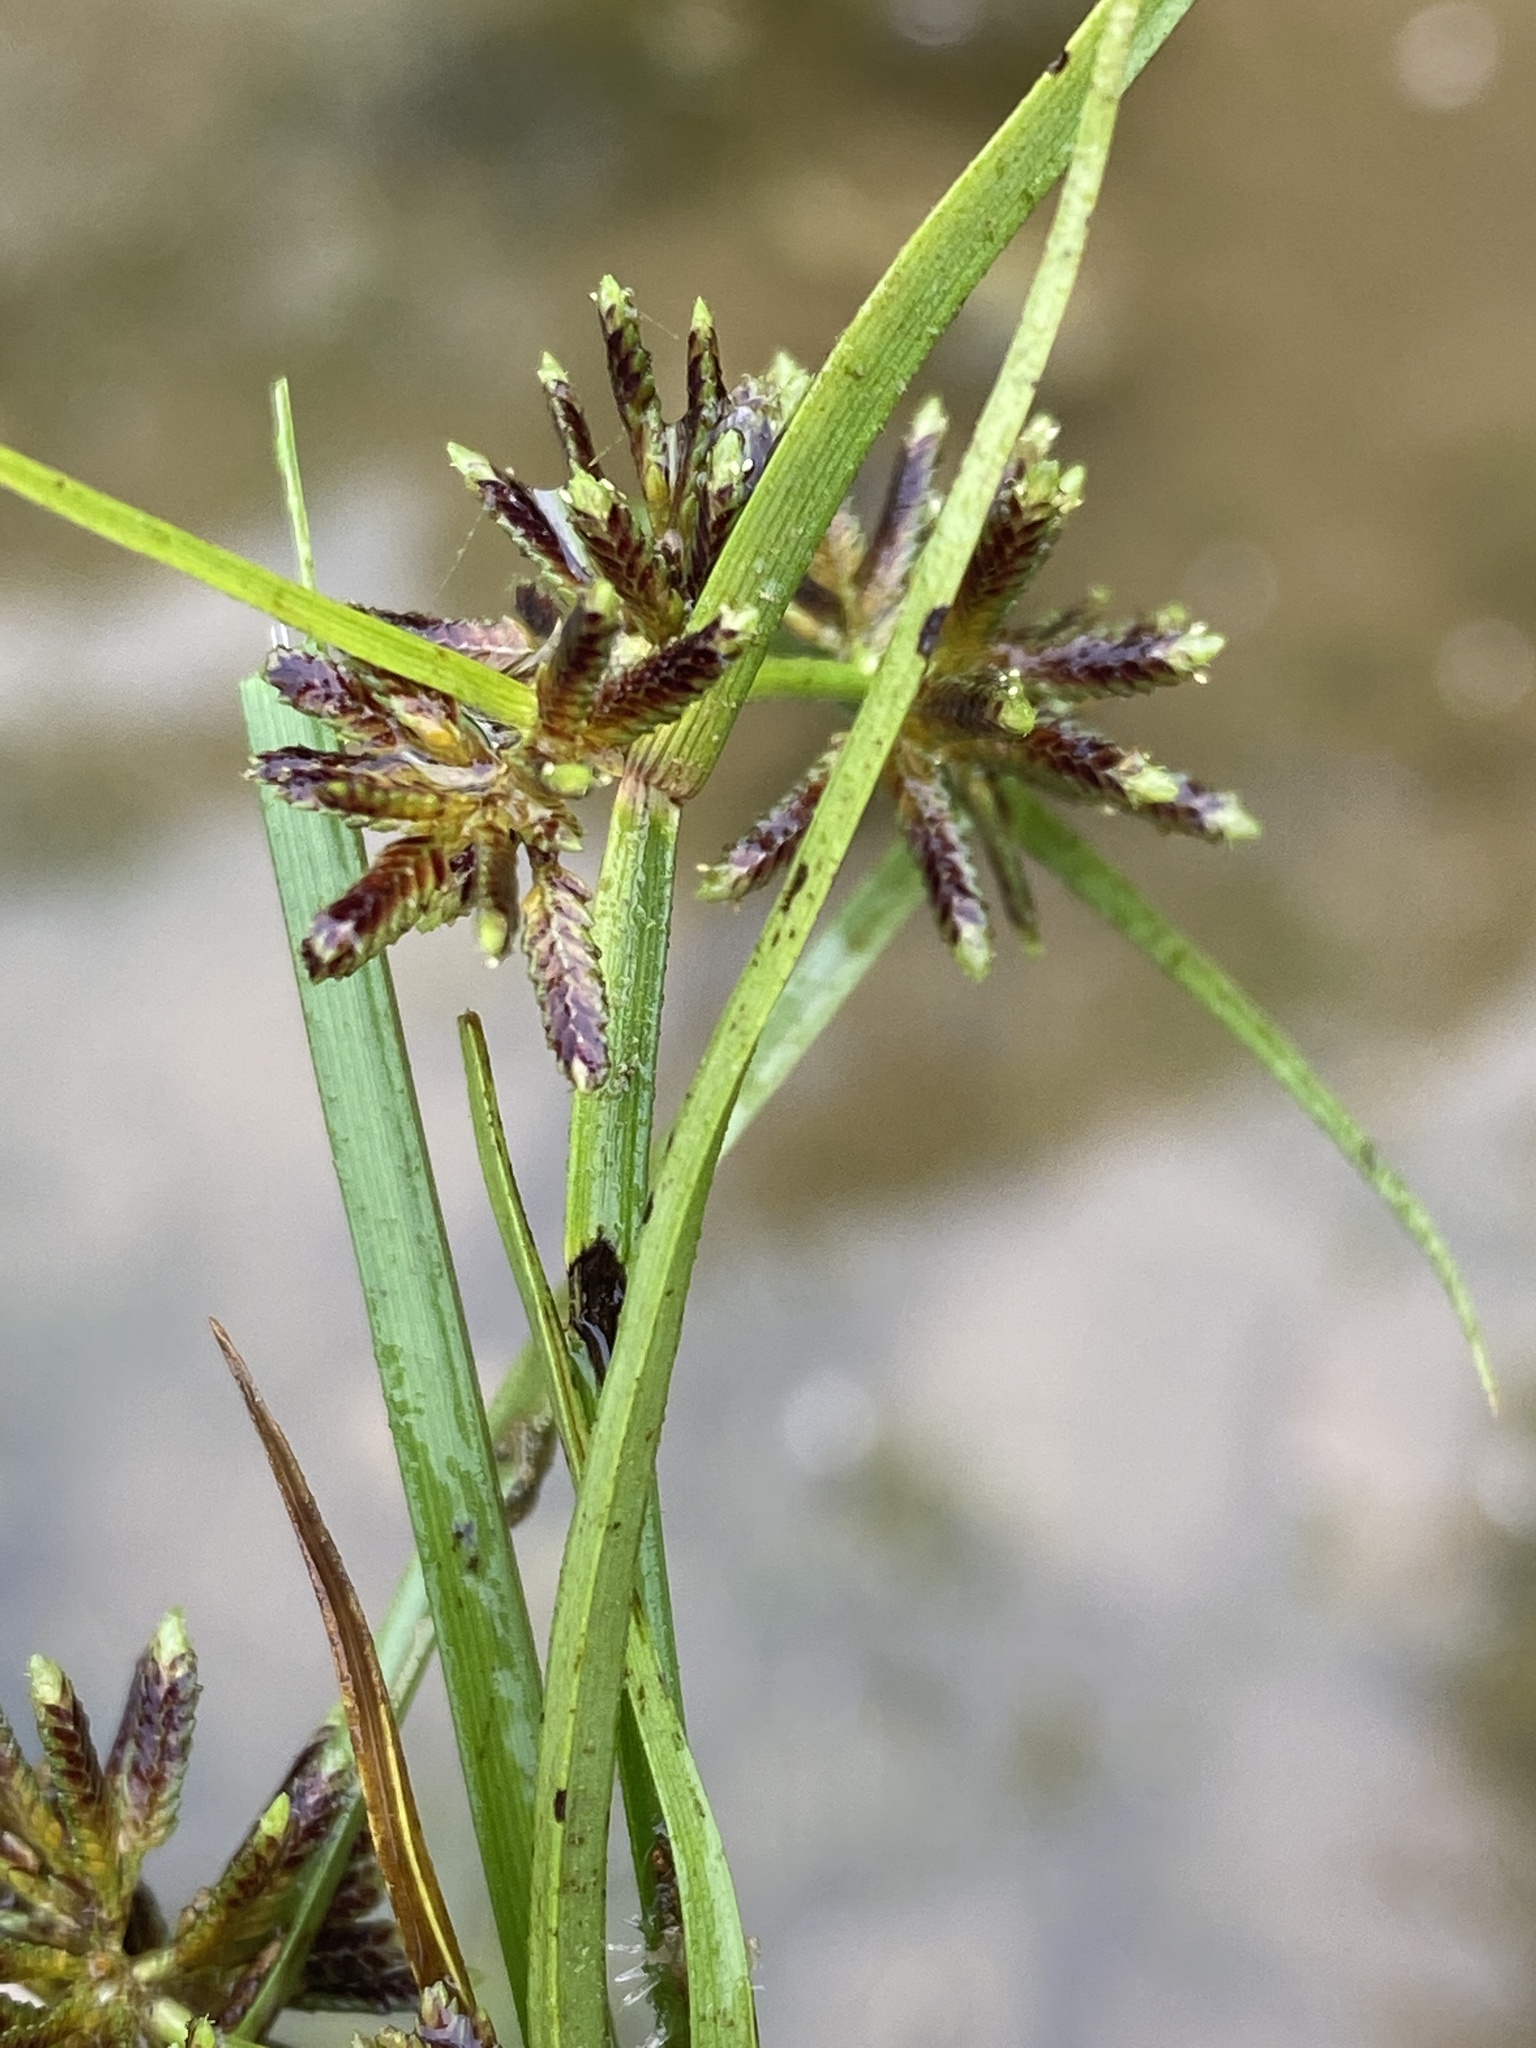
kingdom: Plantae
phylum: Tracheophyta
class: Liliopsida
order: Poales
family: Cyperaceae
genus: Cyperus
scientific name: Cyperus fuscus
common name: Brown galingale
